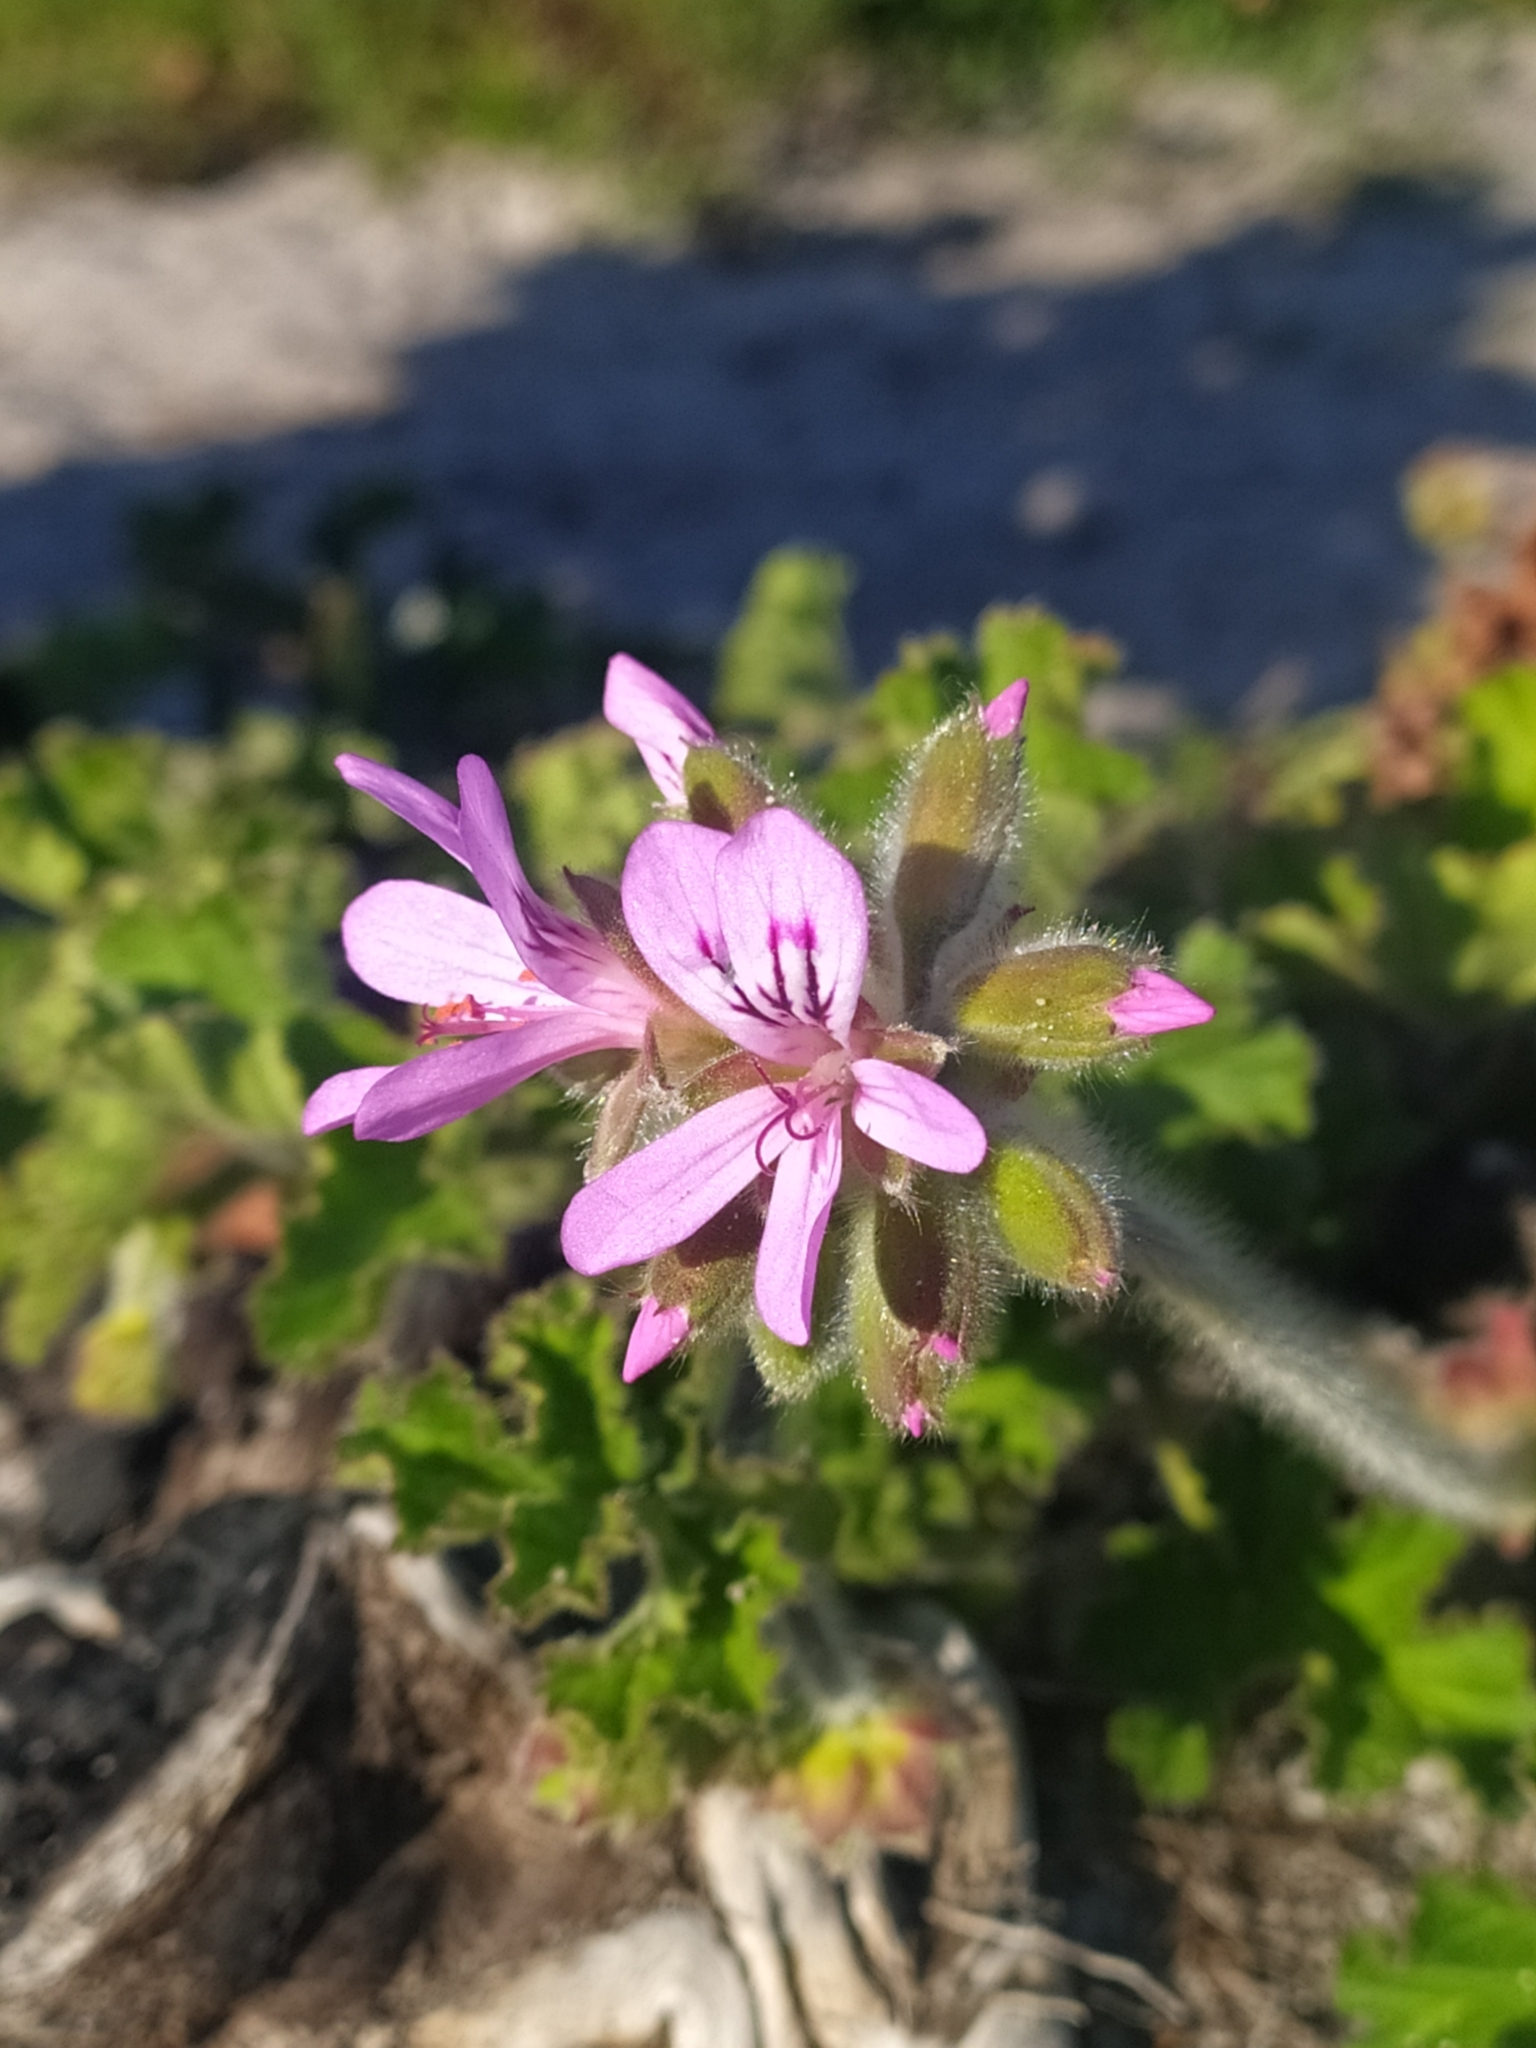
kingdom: Plantae
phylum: Tracheophyta
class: Magnoliopsida
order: Geraniales
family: Geraniaceae
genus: Pelargonium
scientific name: Pelargonium capitatum
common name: Rose scented geranium
